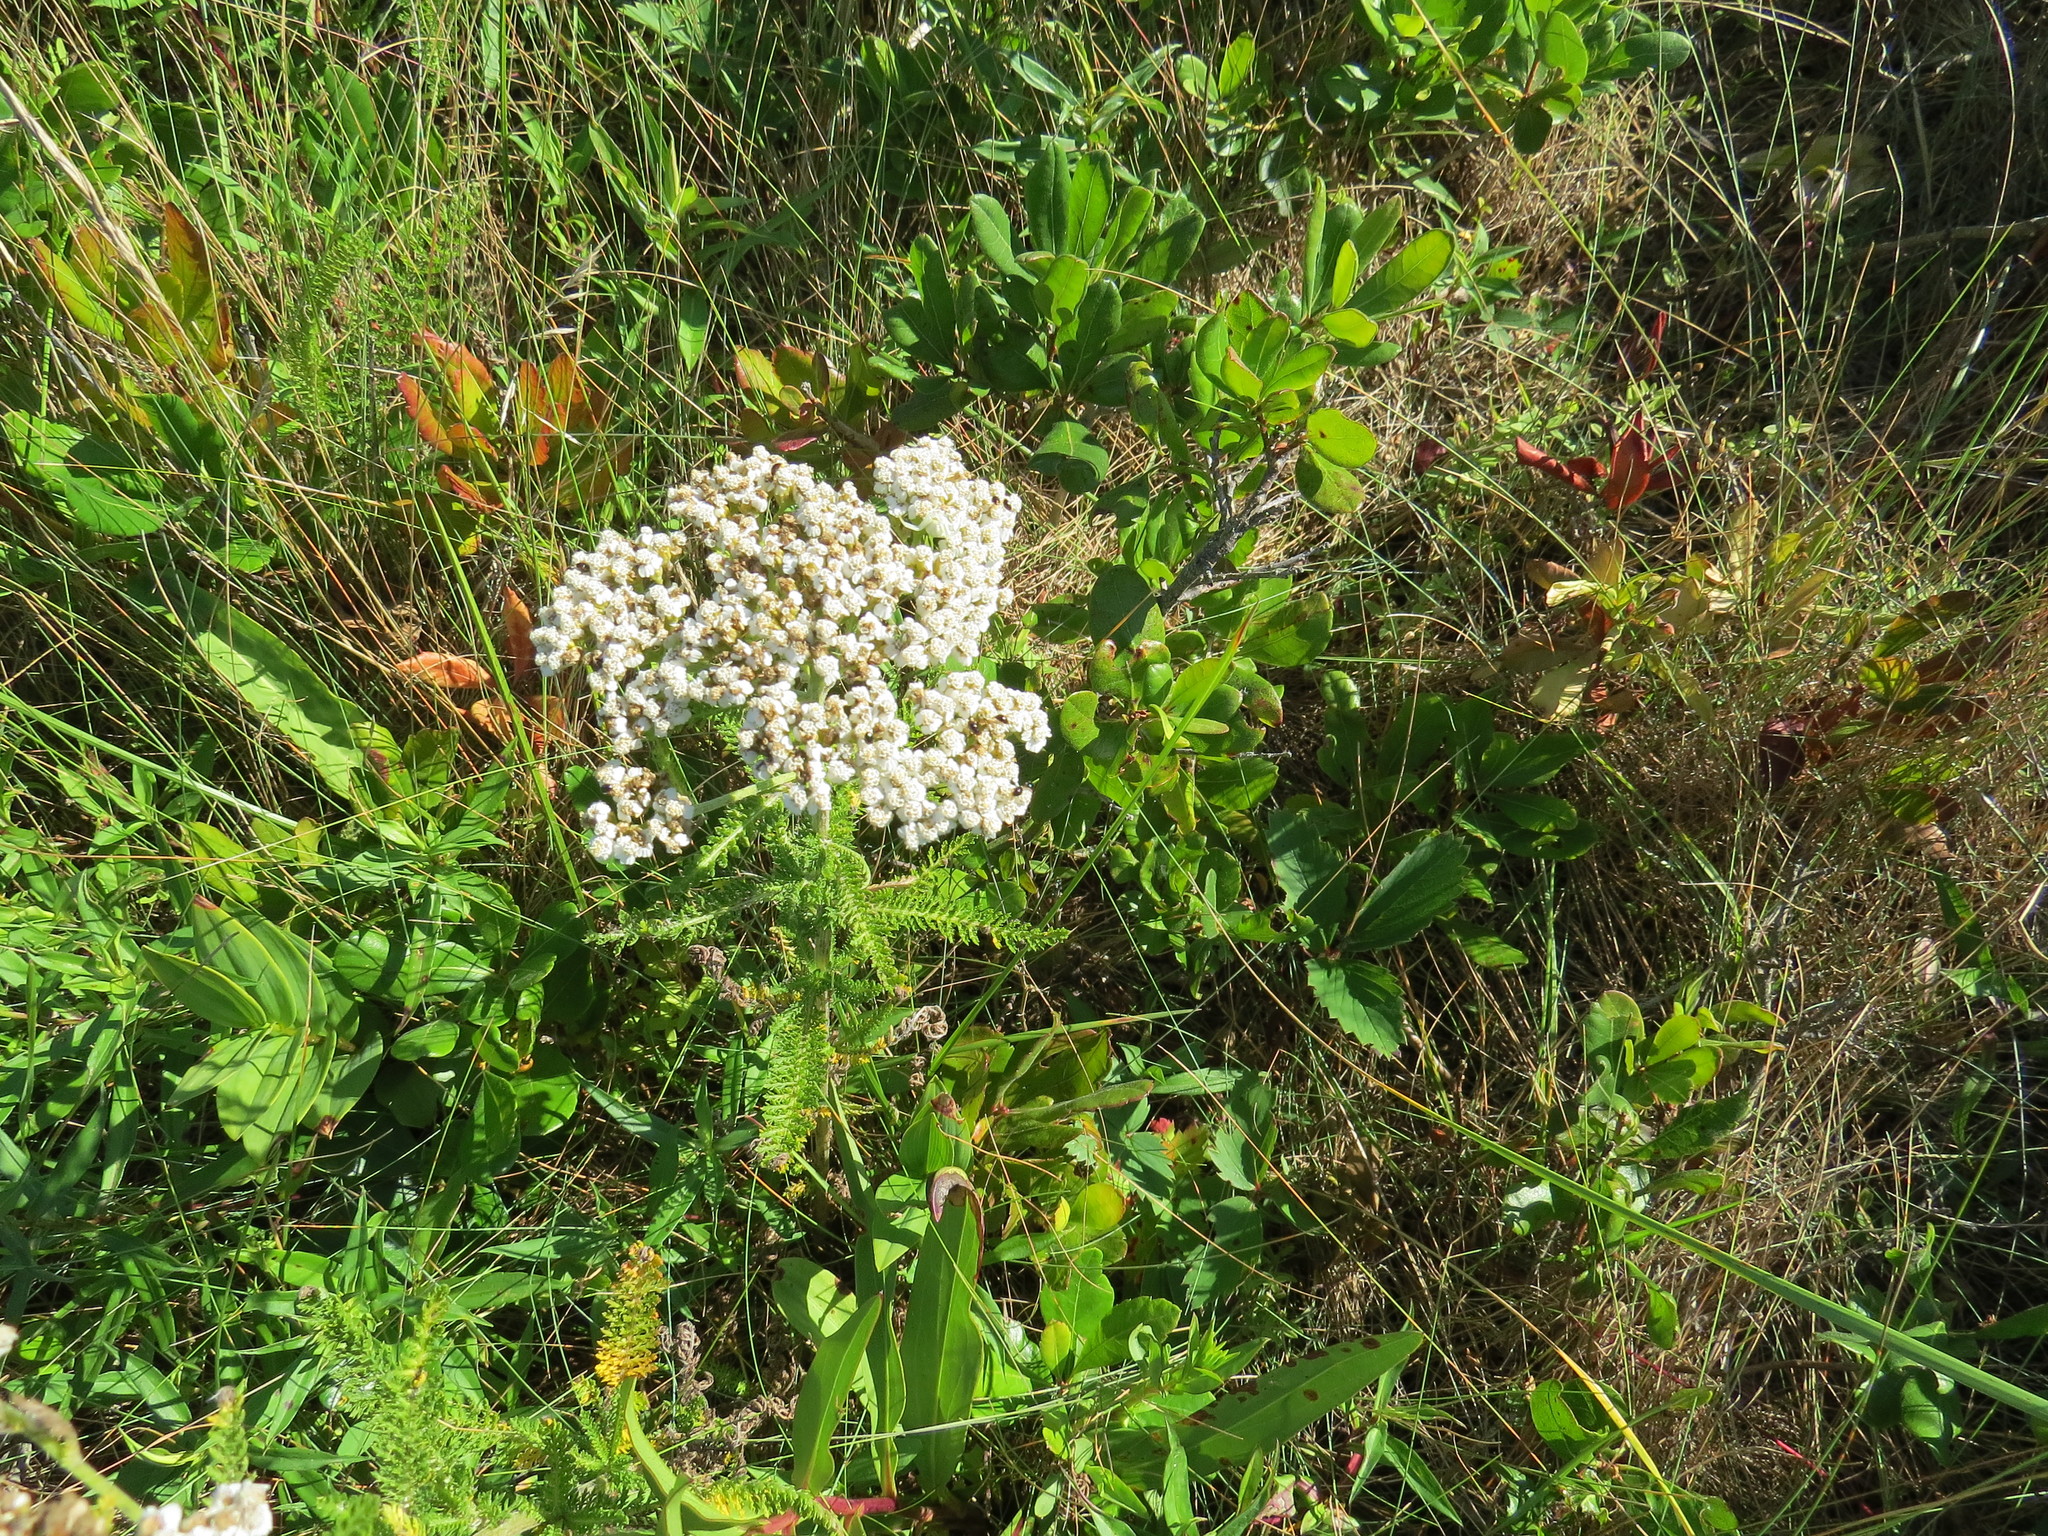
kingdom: Plantae
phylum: Tracheophyta
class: Magnoliopsida
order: Asterales
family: Asteraceae
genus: Achillea
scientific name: Achillea millefolium
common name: Yarrow
